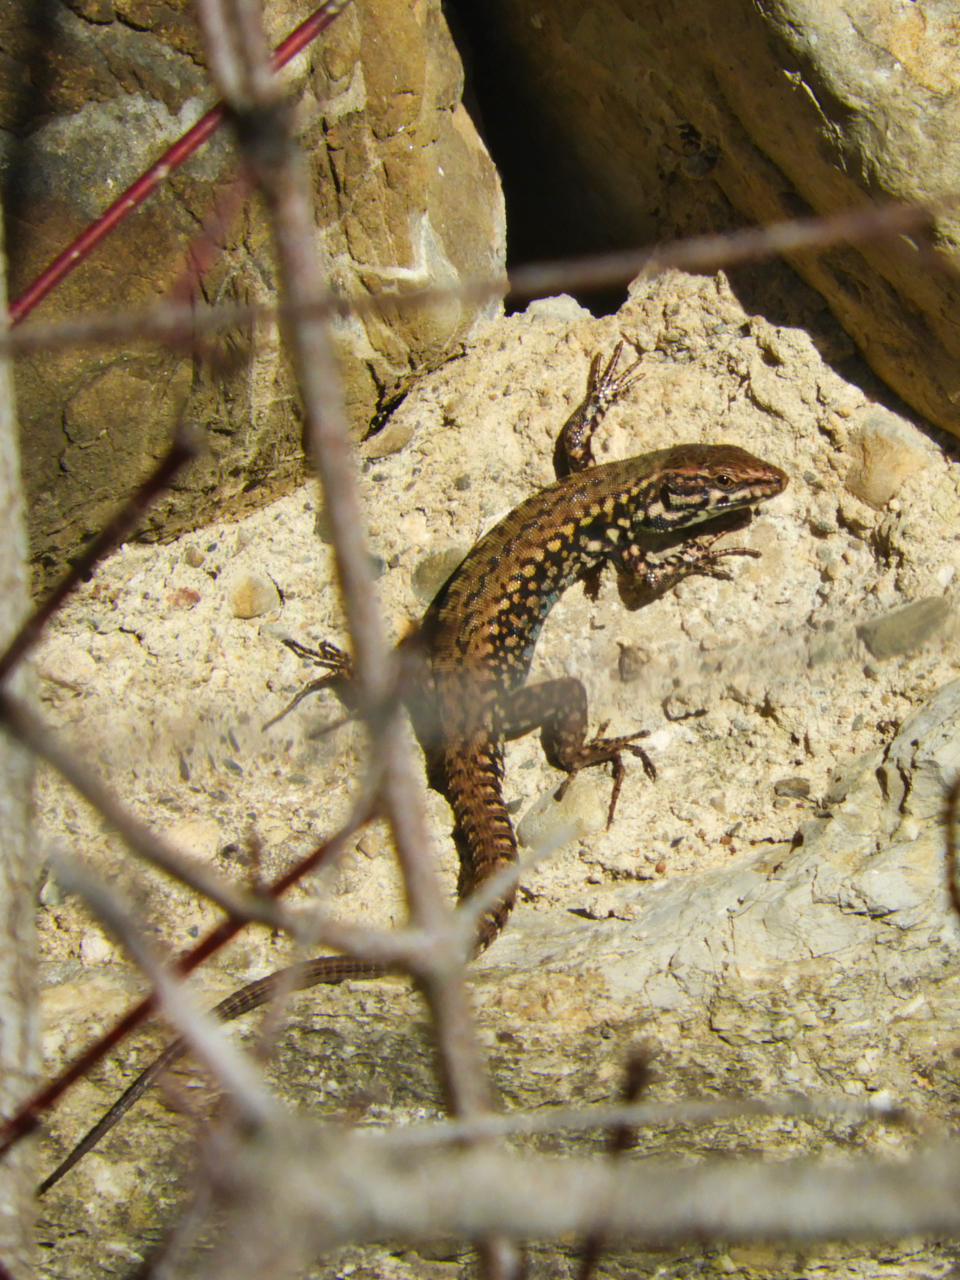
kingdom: Animalia
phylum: Chordata
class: Squamata
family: Lacertidae
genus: Podarcis
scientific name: Podarcis muralis
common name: Common wall lizard
